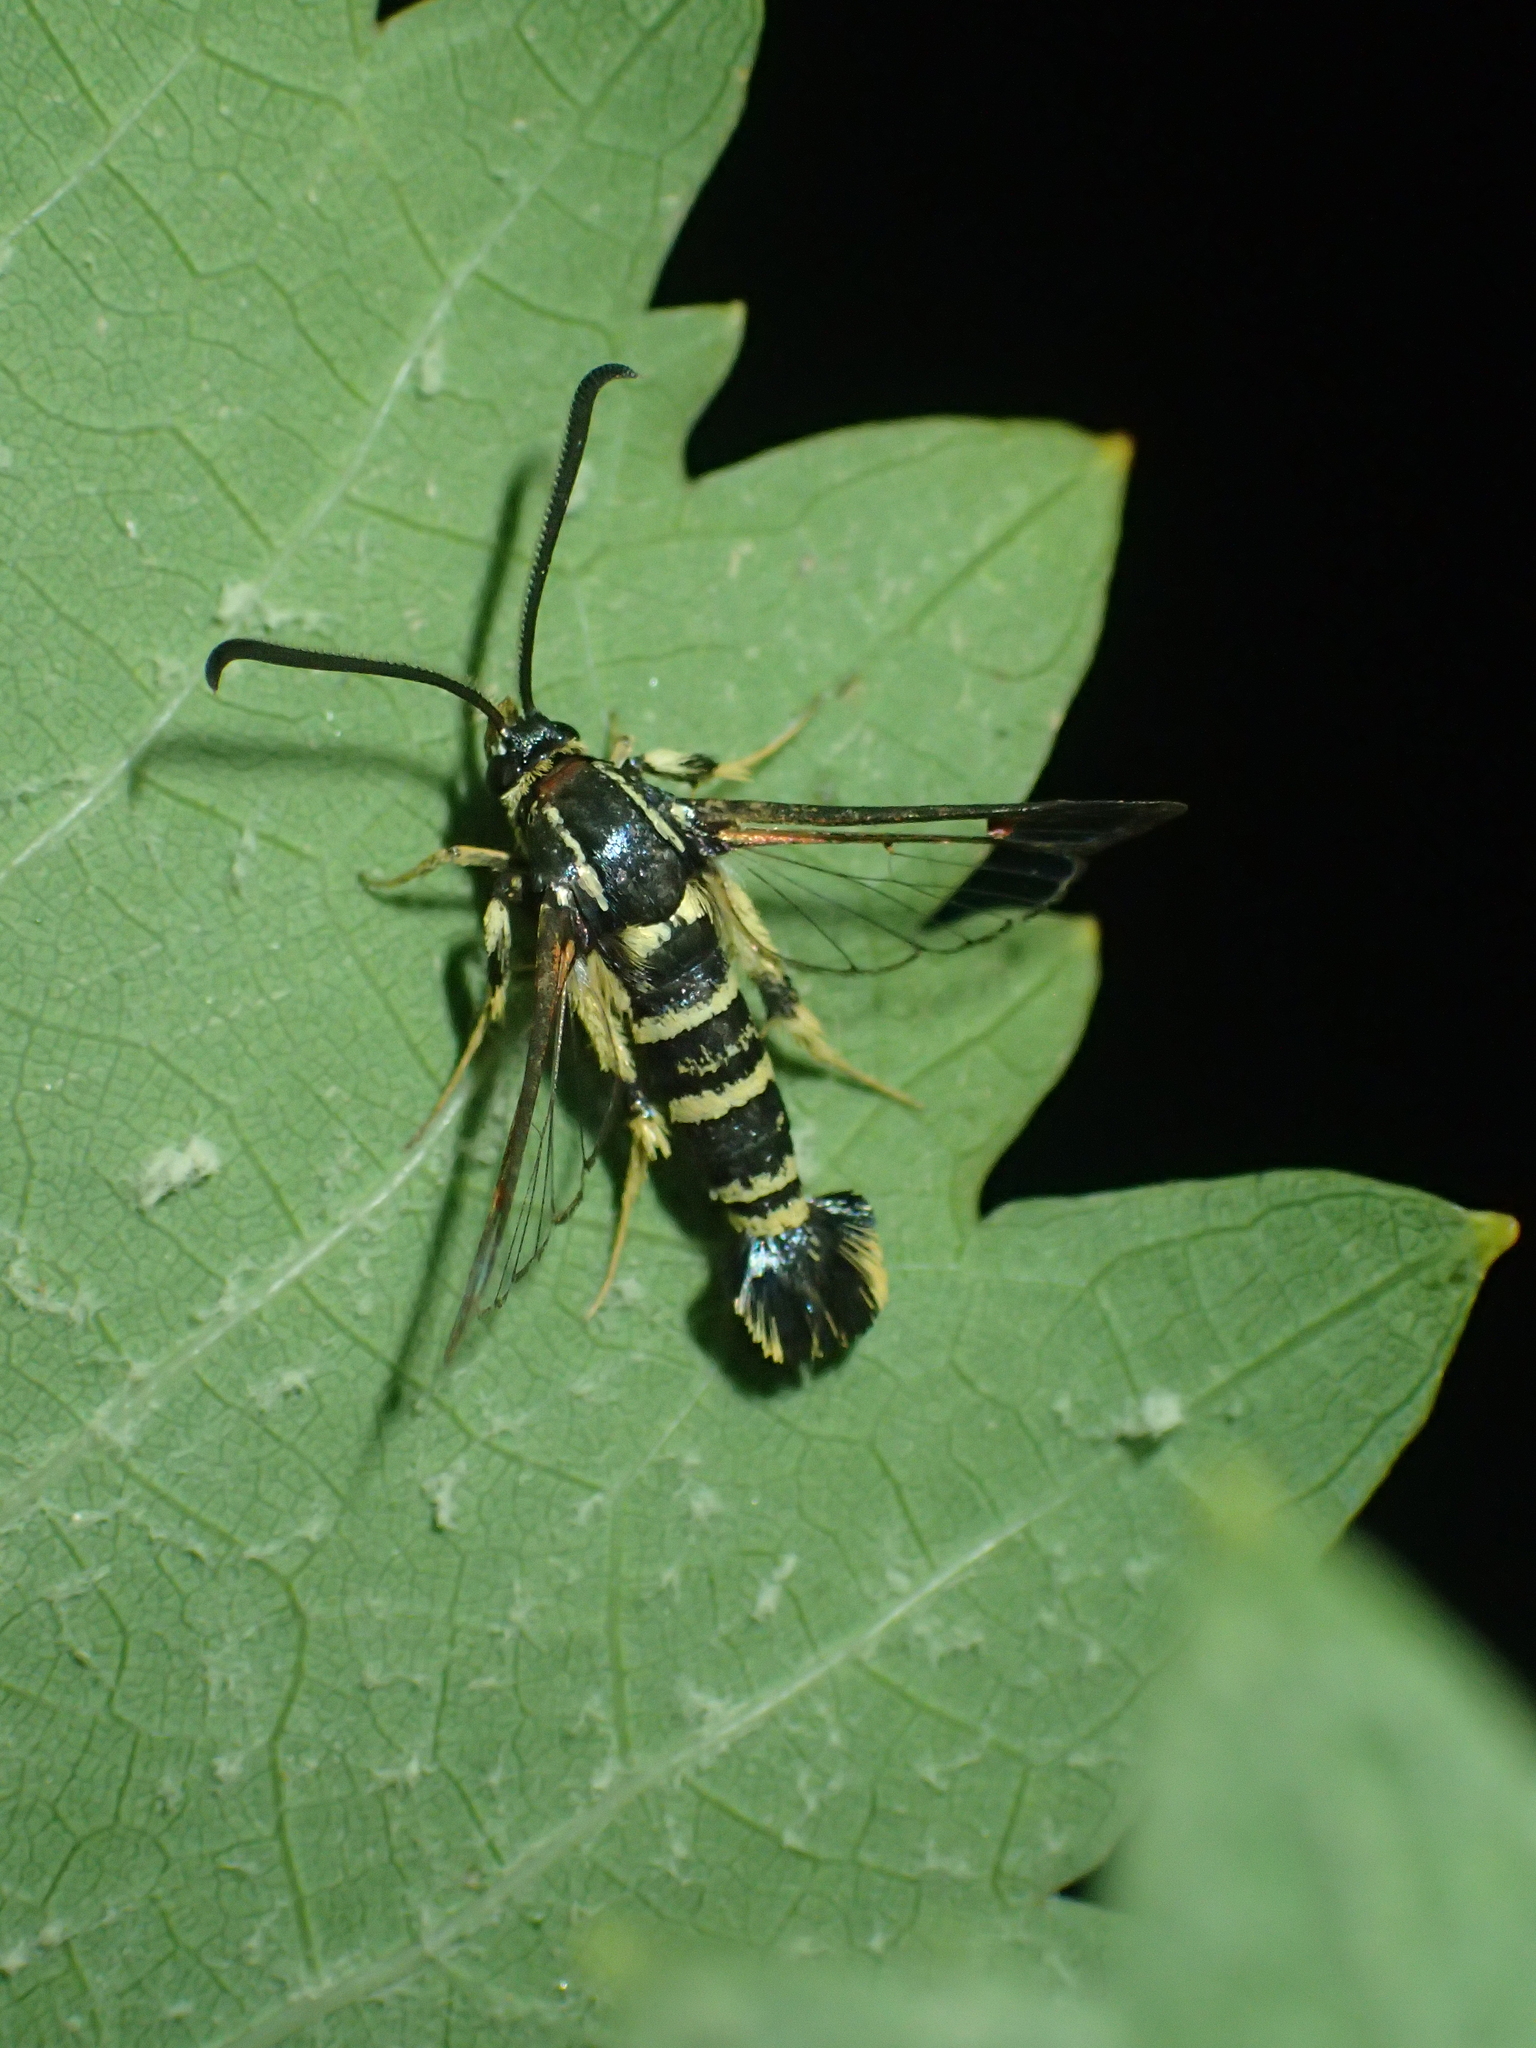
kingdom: Animalia
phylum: Arthropoda
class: Insecta
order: Lepidoptera
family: Sesiidae
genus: Synanthedon
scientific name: Synanthedon vespiformis
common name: Yellow-legged clearwing
